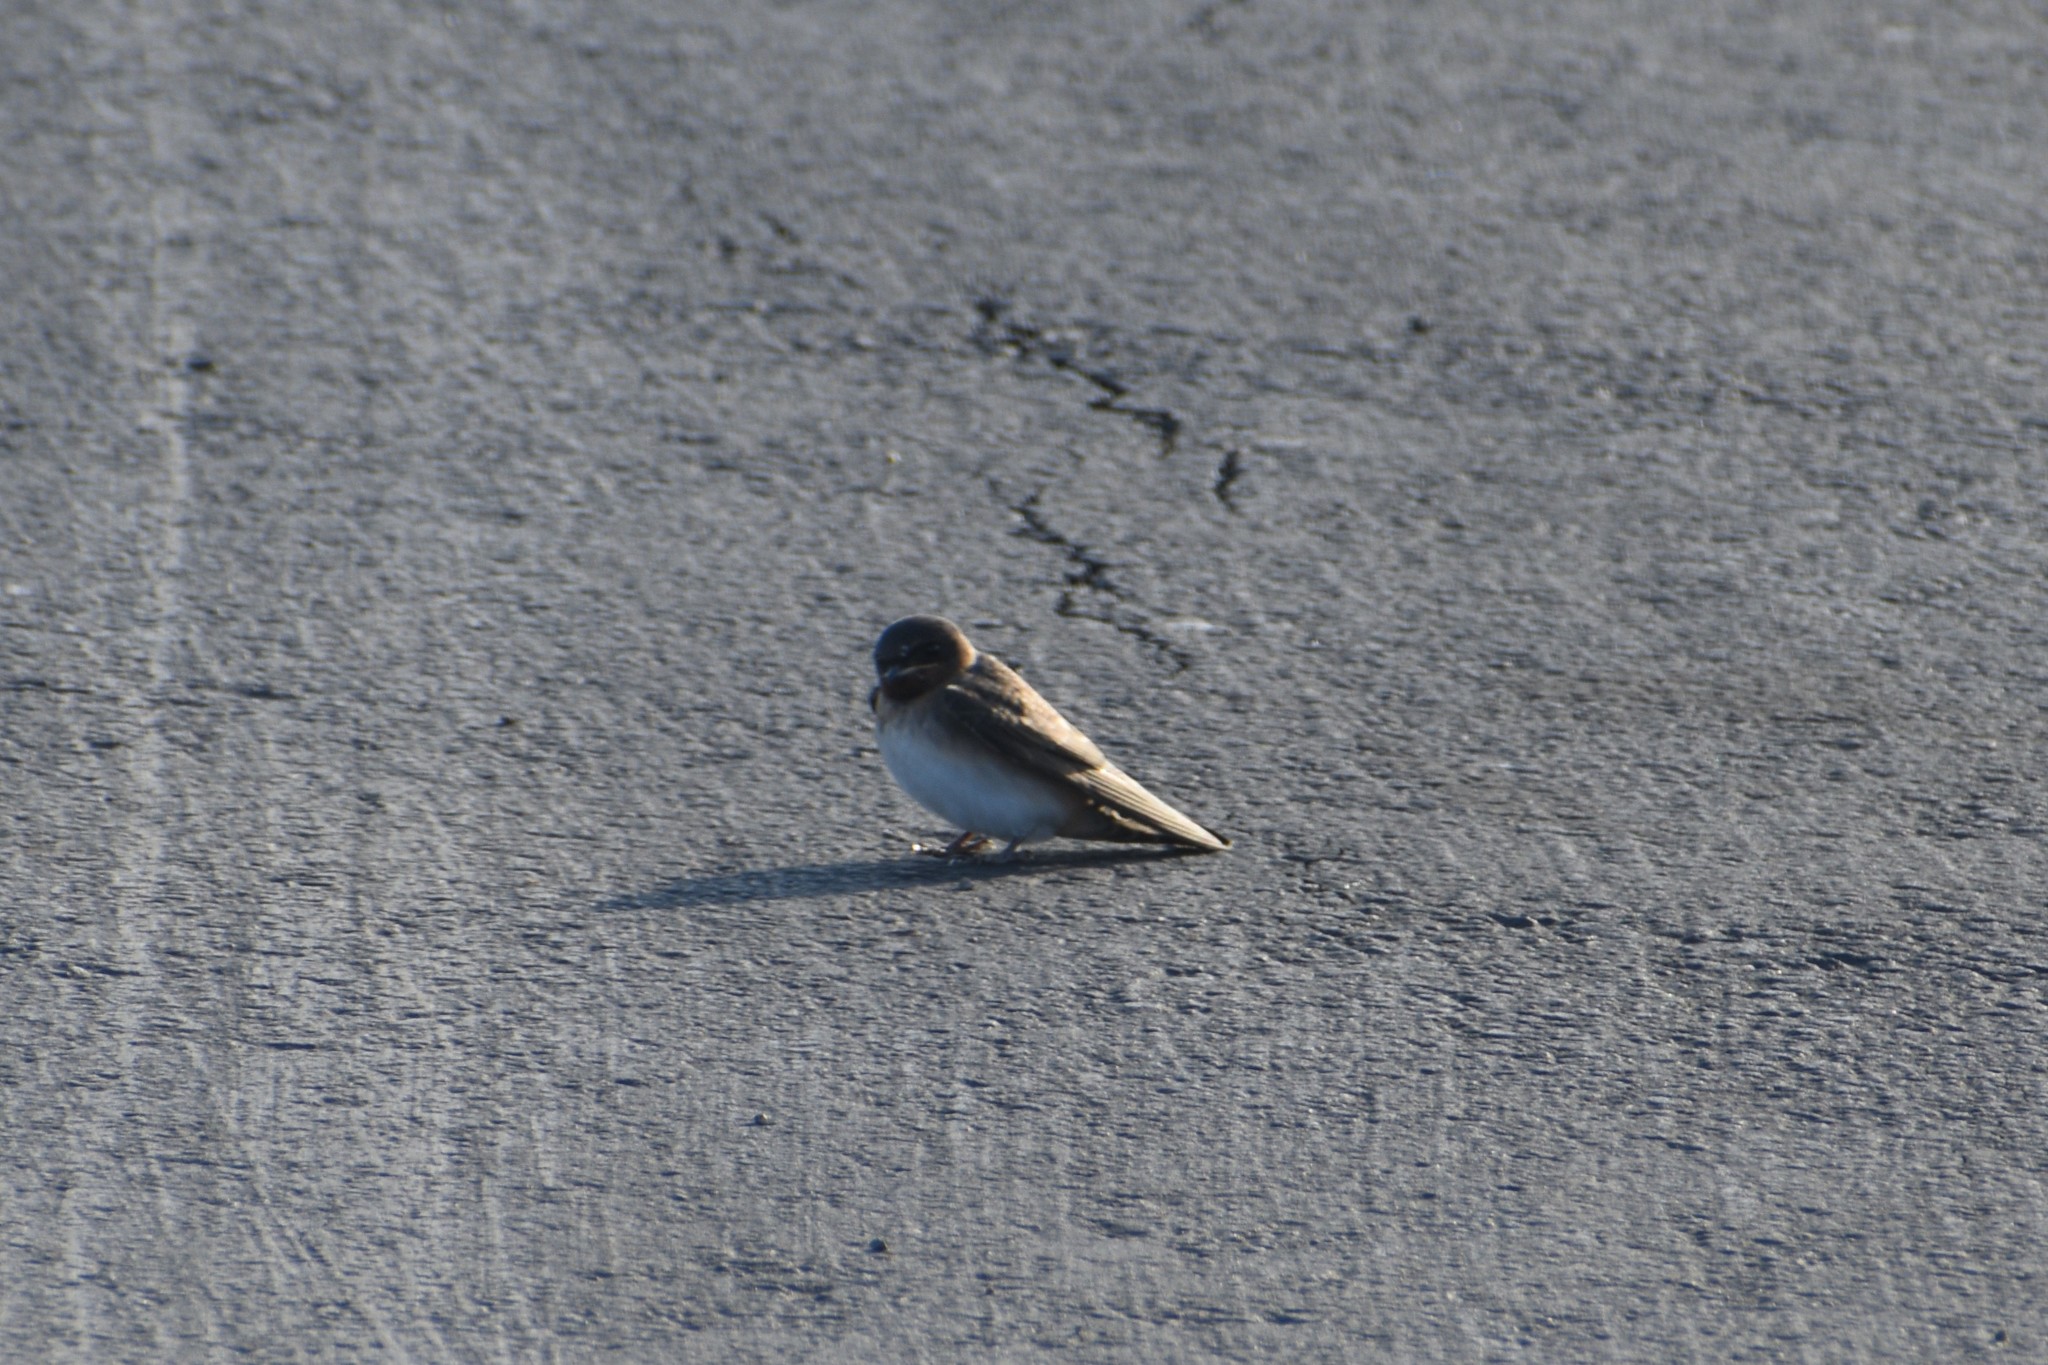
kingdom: Animalia
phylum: Chordata
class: Aves
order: Passeriformes
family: Hirundinidae
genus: Stelgidopteryx
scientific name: Stelgidopteryx serripennis
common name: Northern rough-winged swallow
